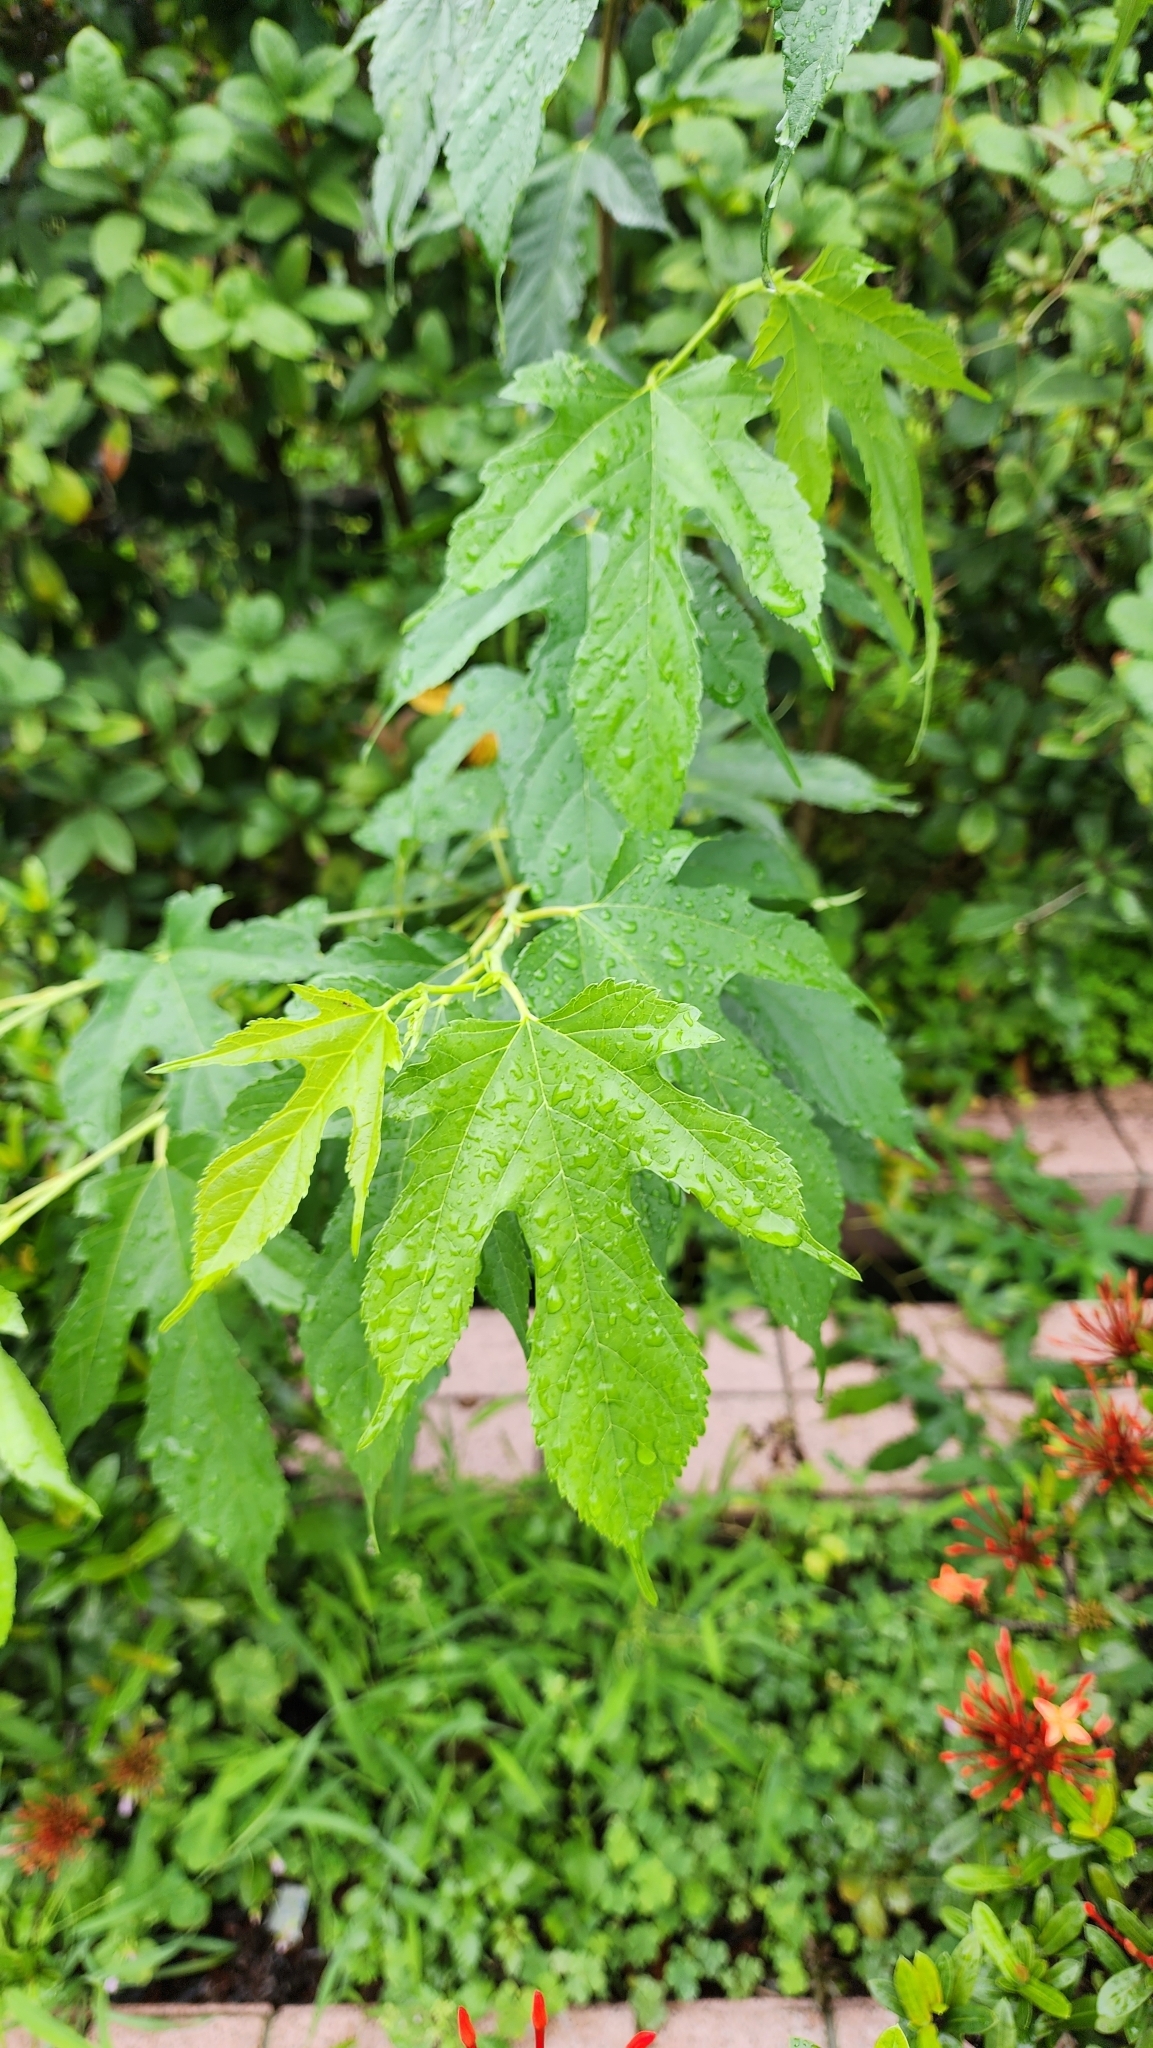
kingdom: Plantae
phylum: Tracheophyta
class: Magnoliopsida
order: Rosales
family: Moraceae
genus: Morus
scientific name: Morus indica
